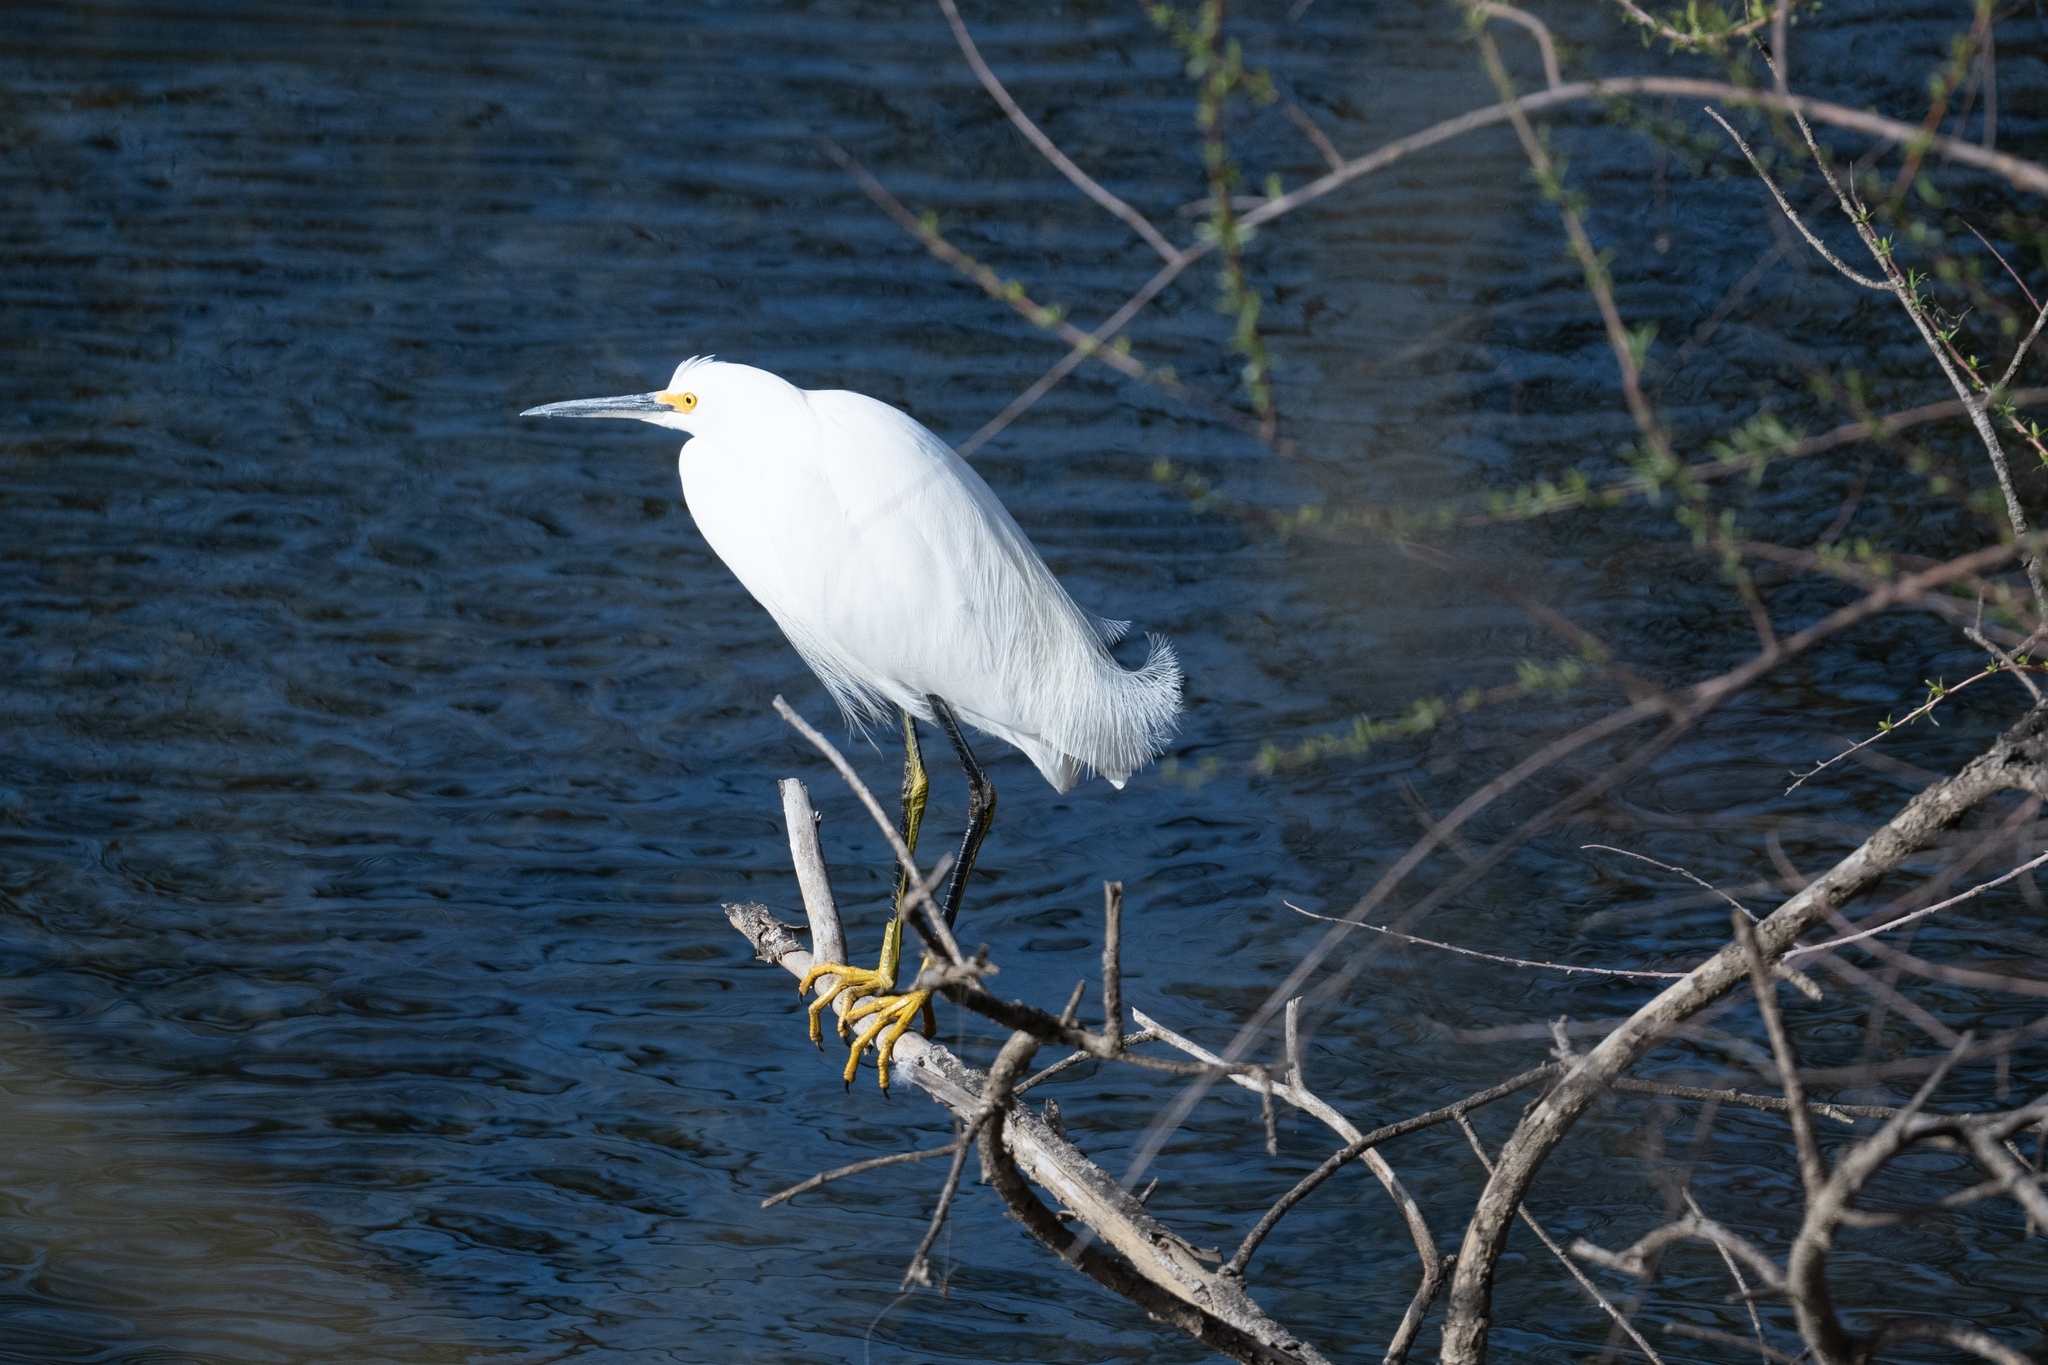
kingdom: Animalia
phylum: Chordata
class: Aves
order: Pelecaniformes
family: Ardeidae
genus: Egretta
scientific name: Egretta thula
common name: Snowy egret
